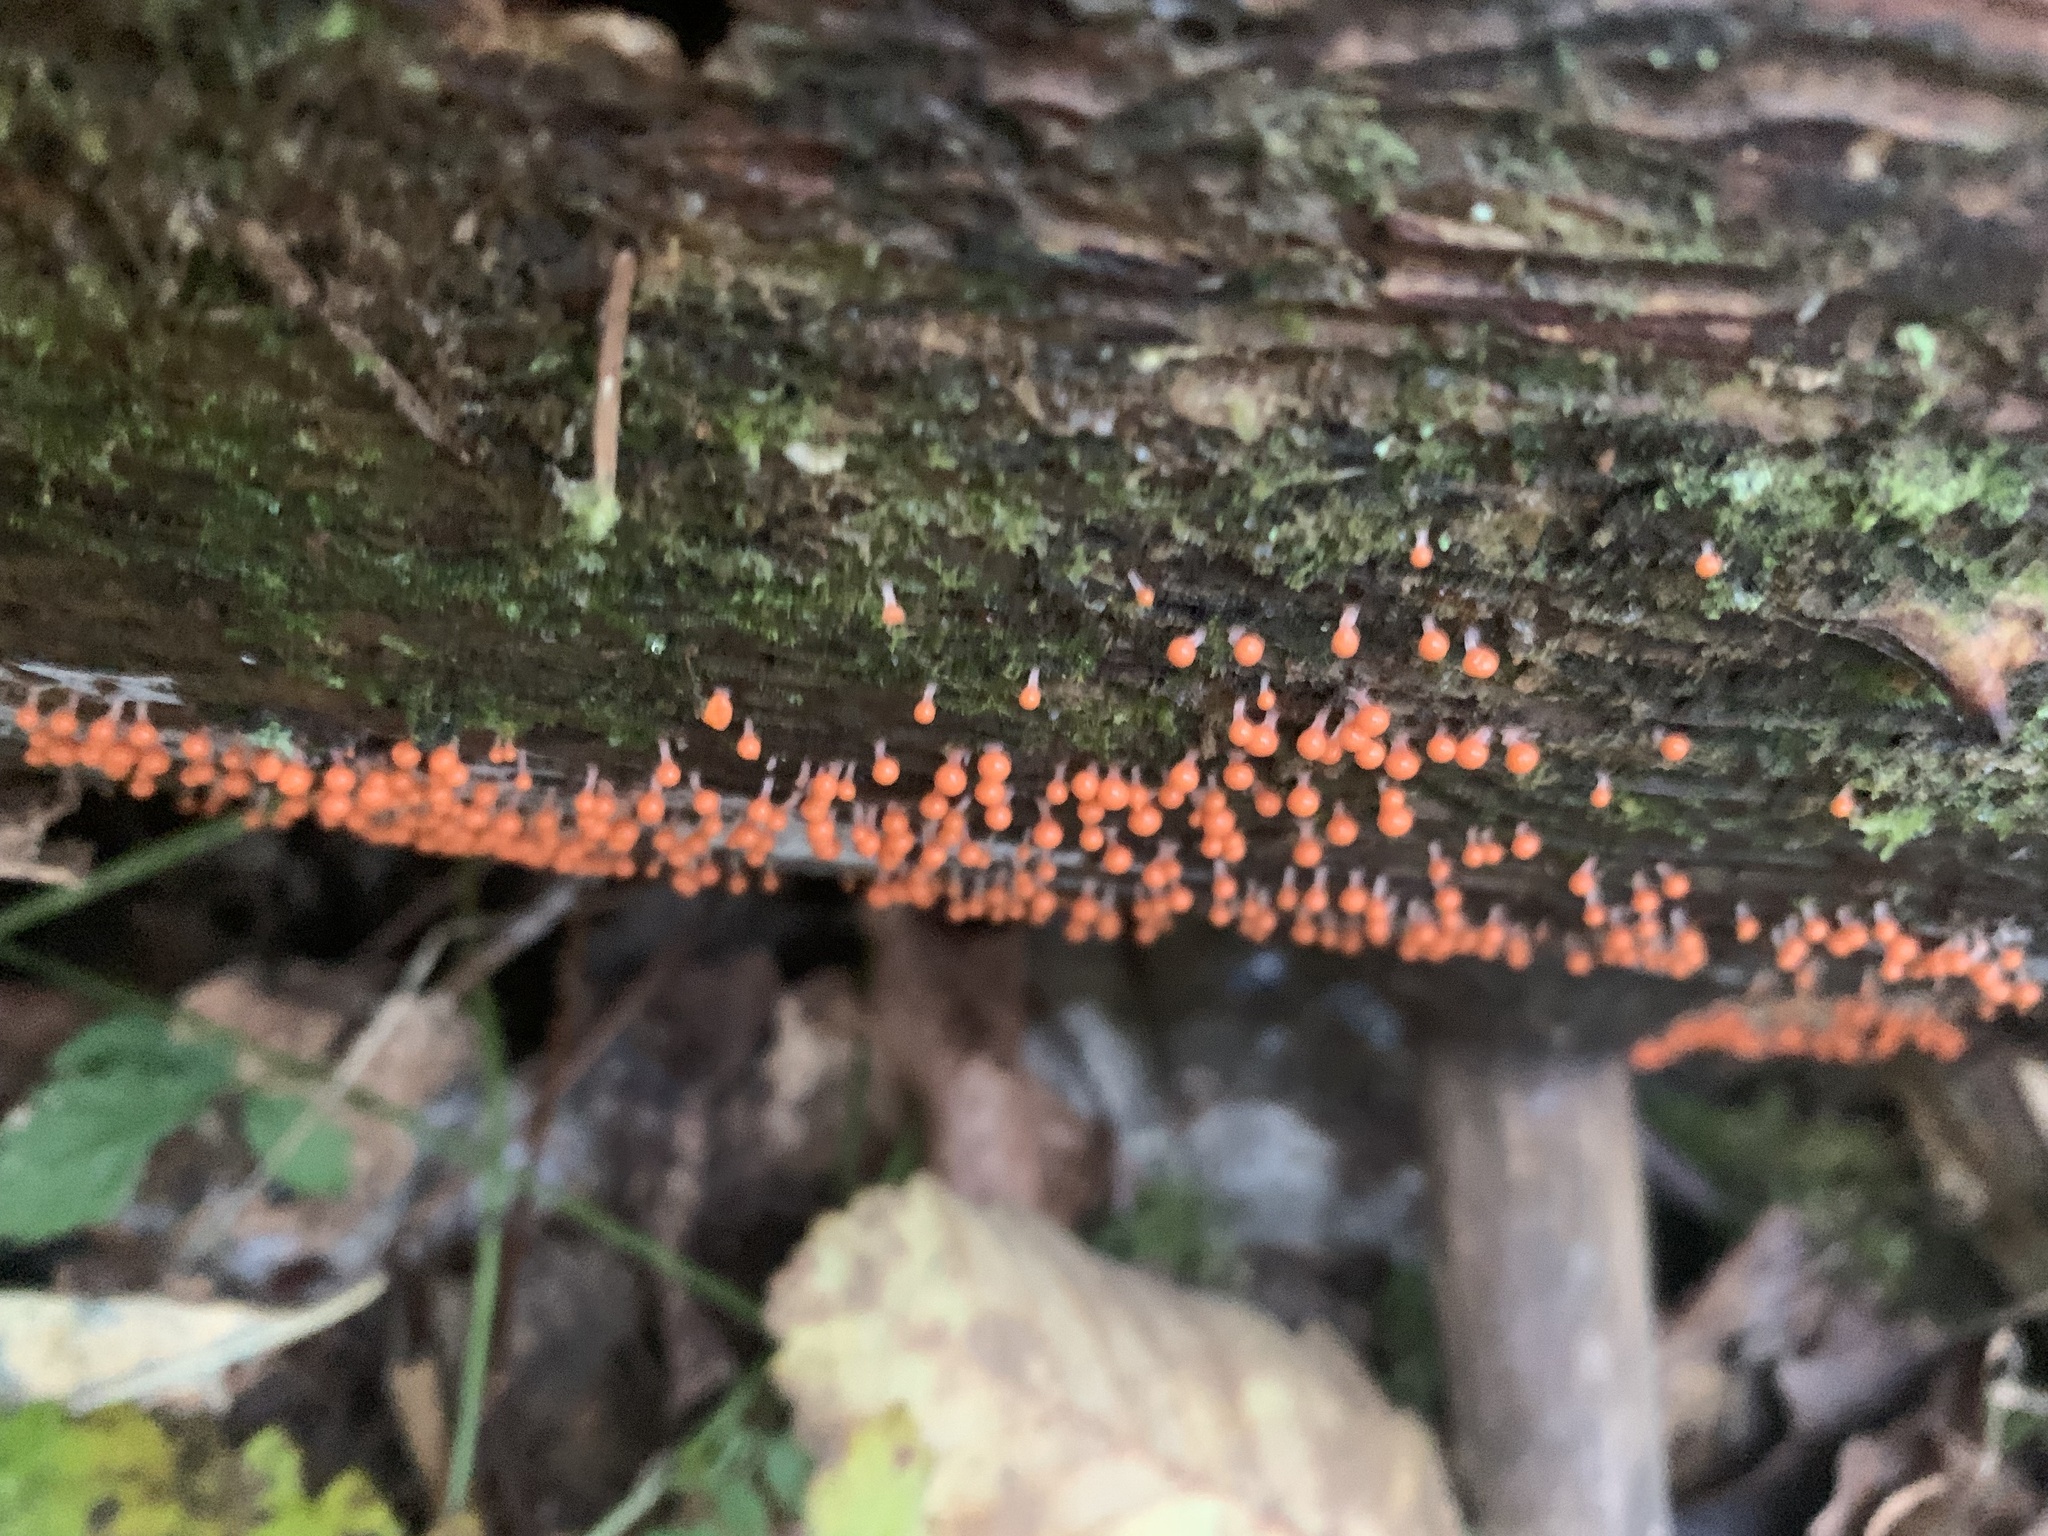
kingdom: Protozoa
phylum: Mycetozoa
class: Myxomycetes
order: Trichiales
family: Arcyriaceae
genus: Hemitrichia
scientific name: Hemitrichia decipiens
